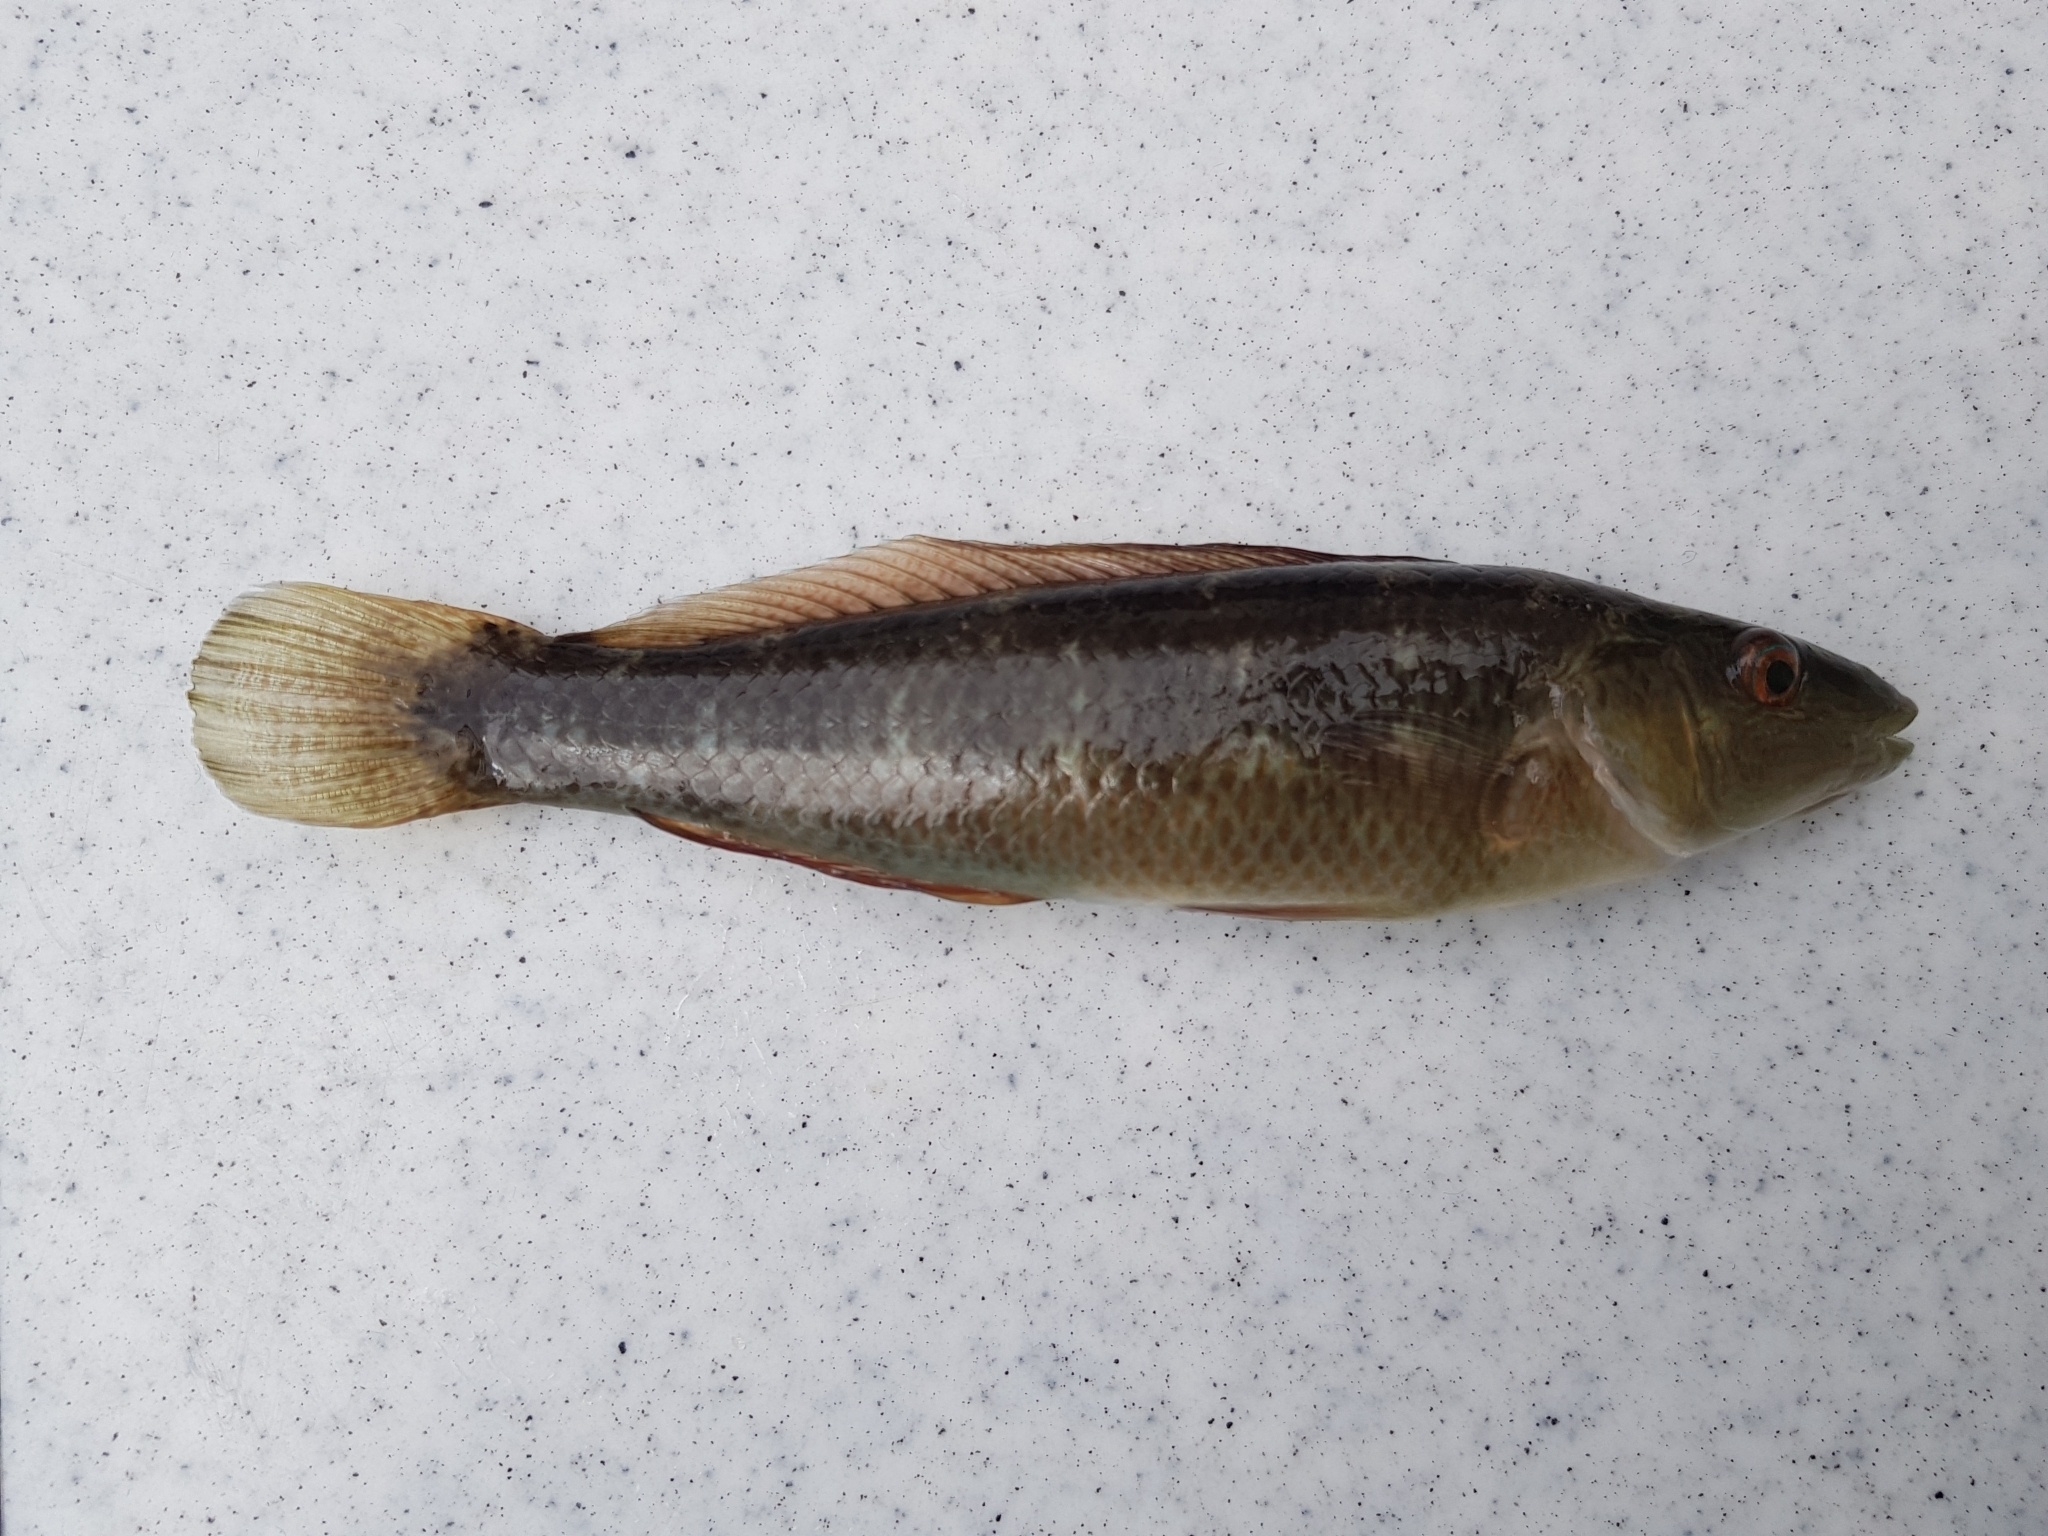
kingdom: Animalia
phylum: Chordata
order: Perciformes
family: Odacidae
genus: Neoodax
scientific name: Neoodax balteatus
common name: Ground mullet
